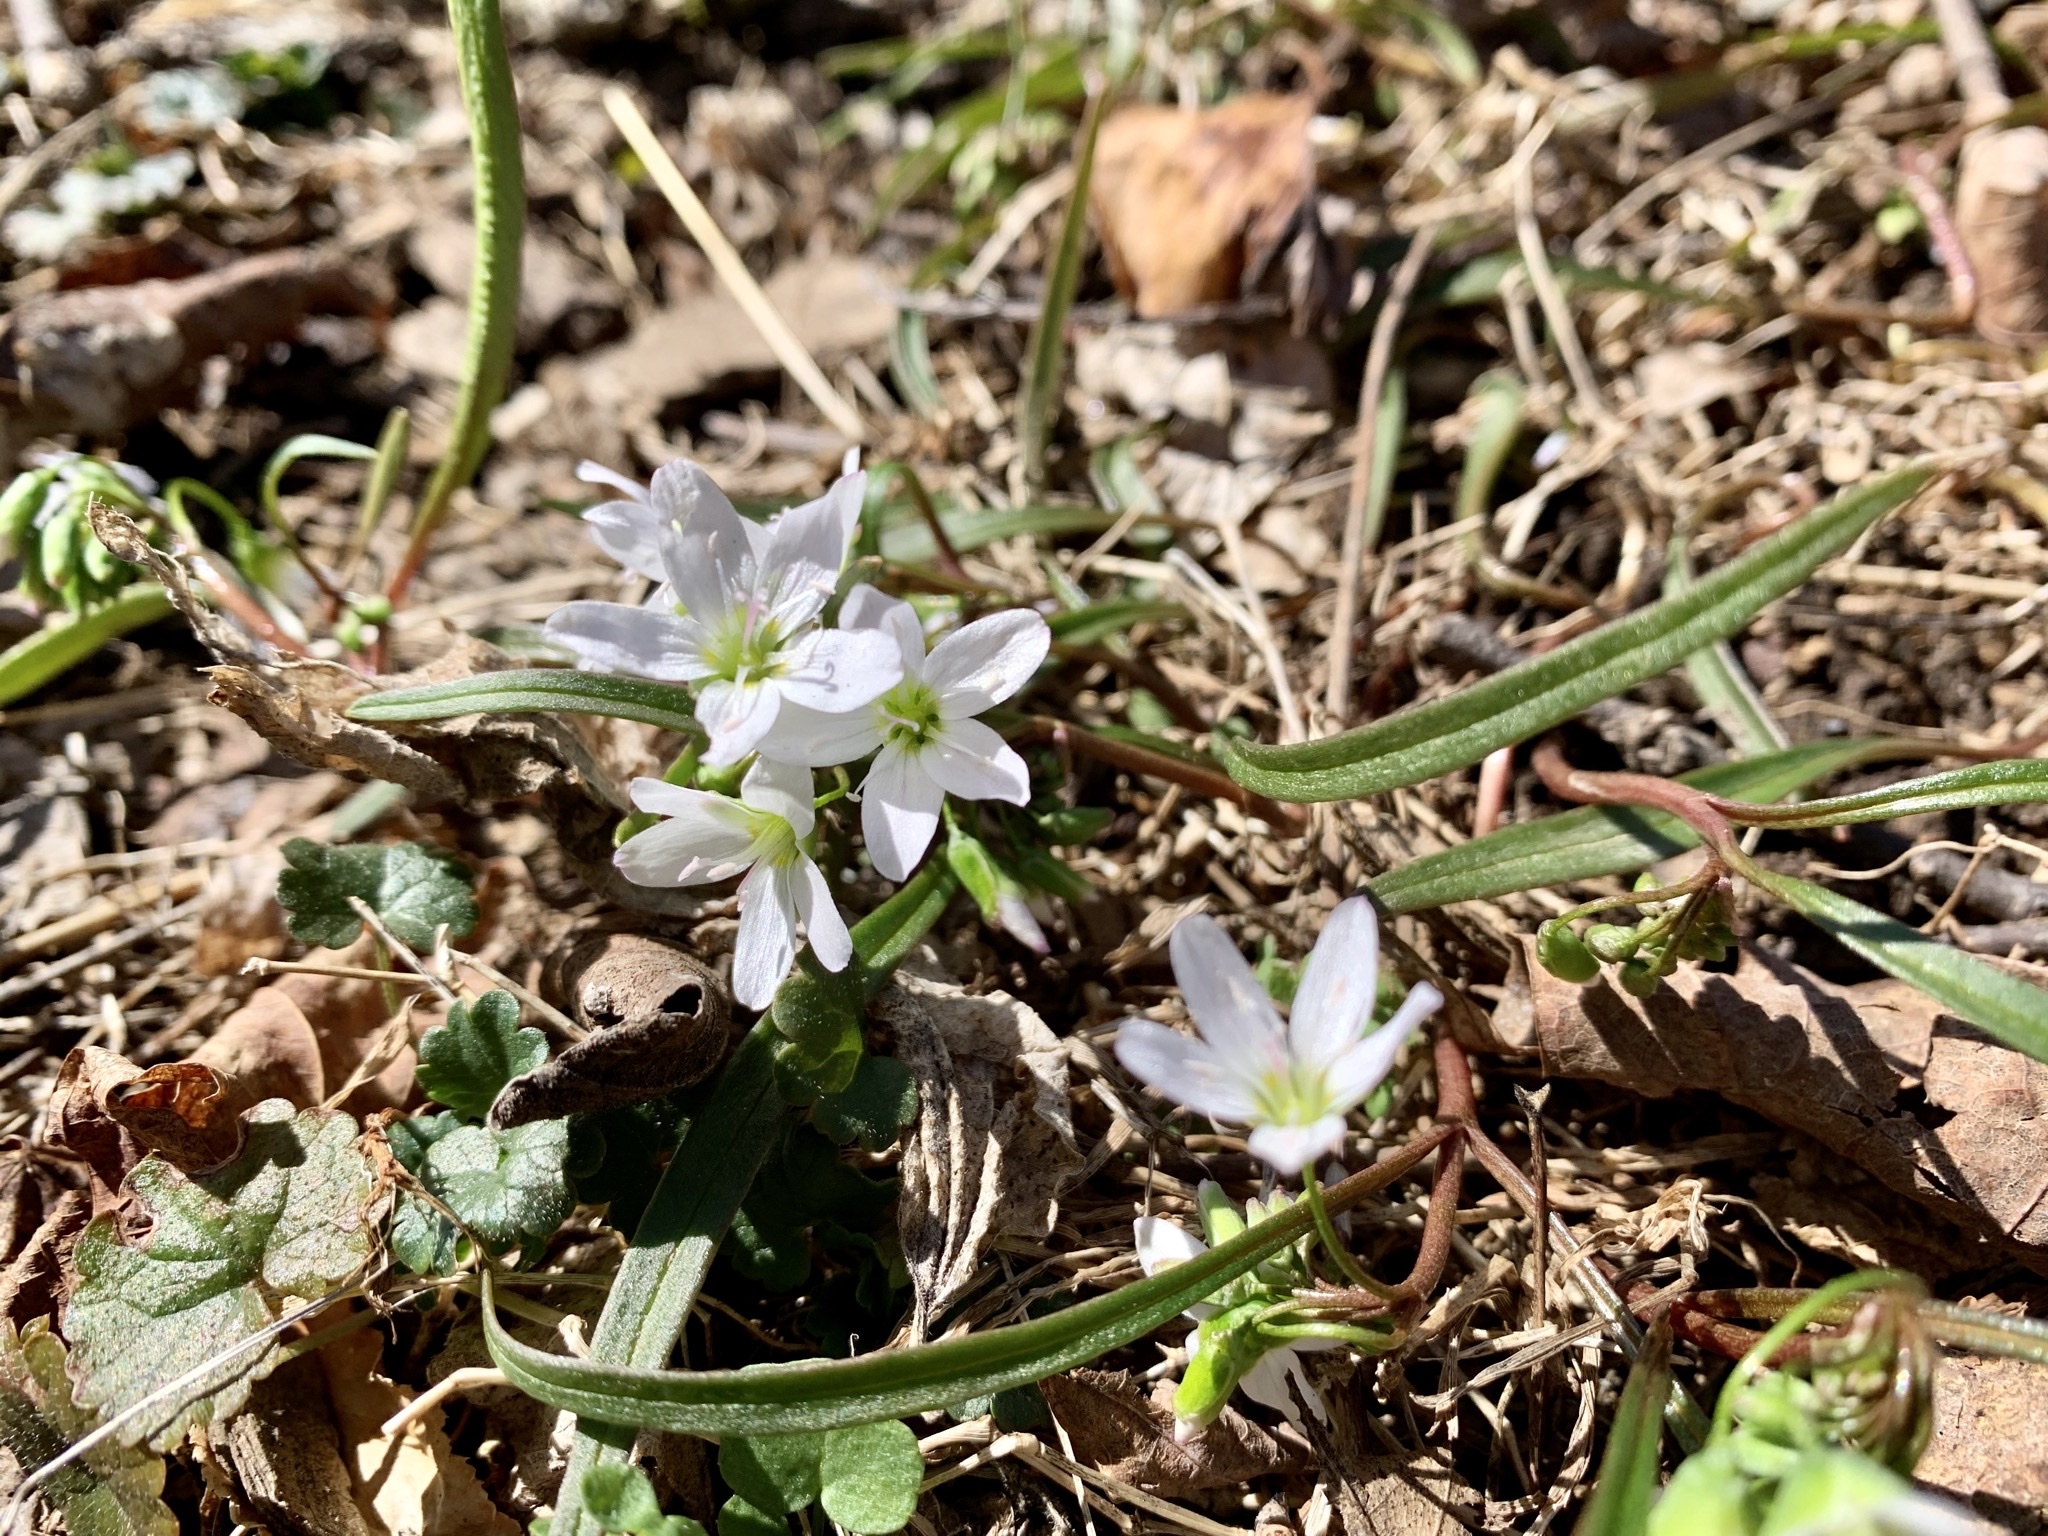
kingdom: Plantae
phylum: Tracheophyta
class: Magnoliopsida
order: Caryophyllales
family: Montiaceae
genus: Claytonia
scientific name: Claytonia virginica
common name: Virginia springbeauty
